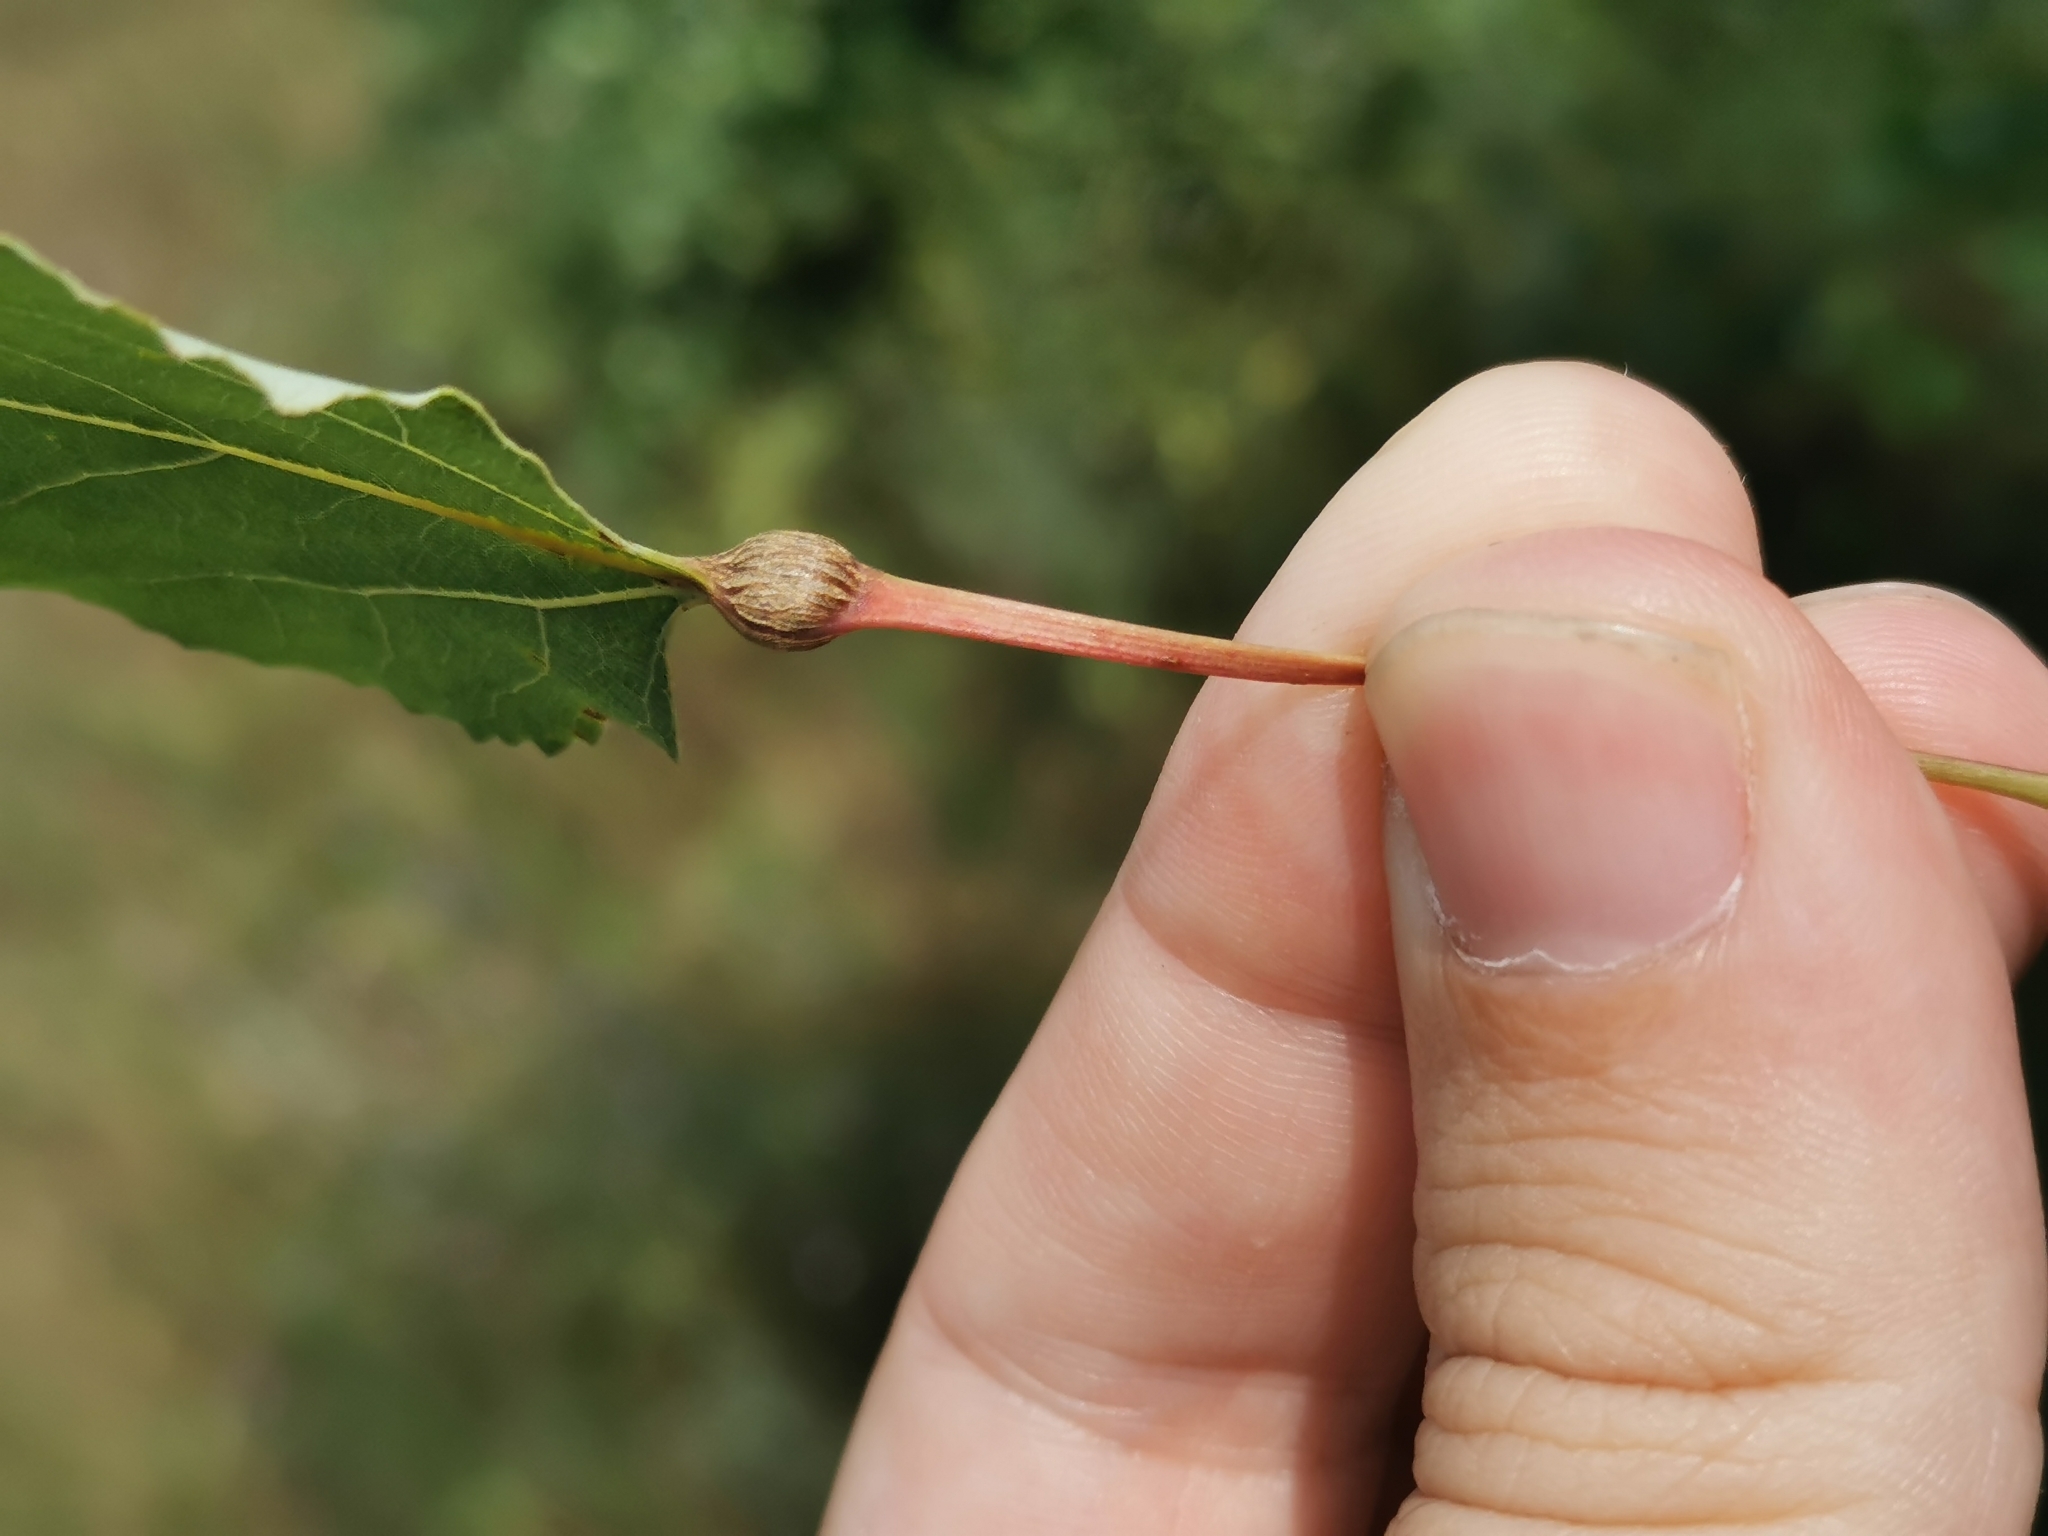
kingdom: Animalia
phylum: Arthropoda
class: Insecta
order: Lepidoptera
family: Nepticulidae
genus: Ectoedemia
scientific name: Ectoedemia populella
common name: Aspen petiole gall moth
